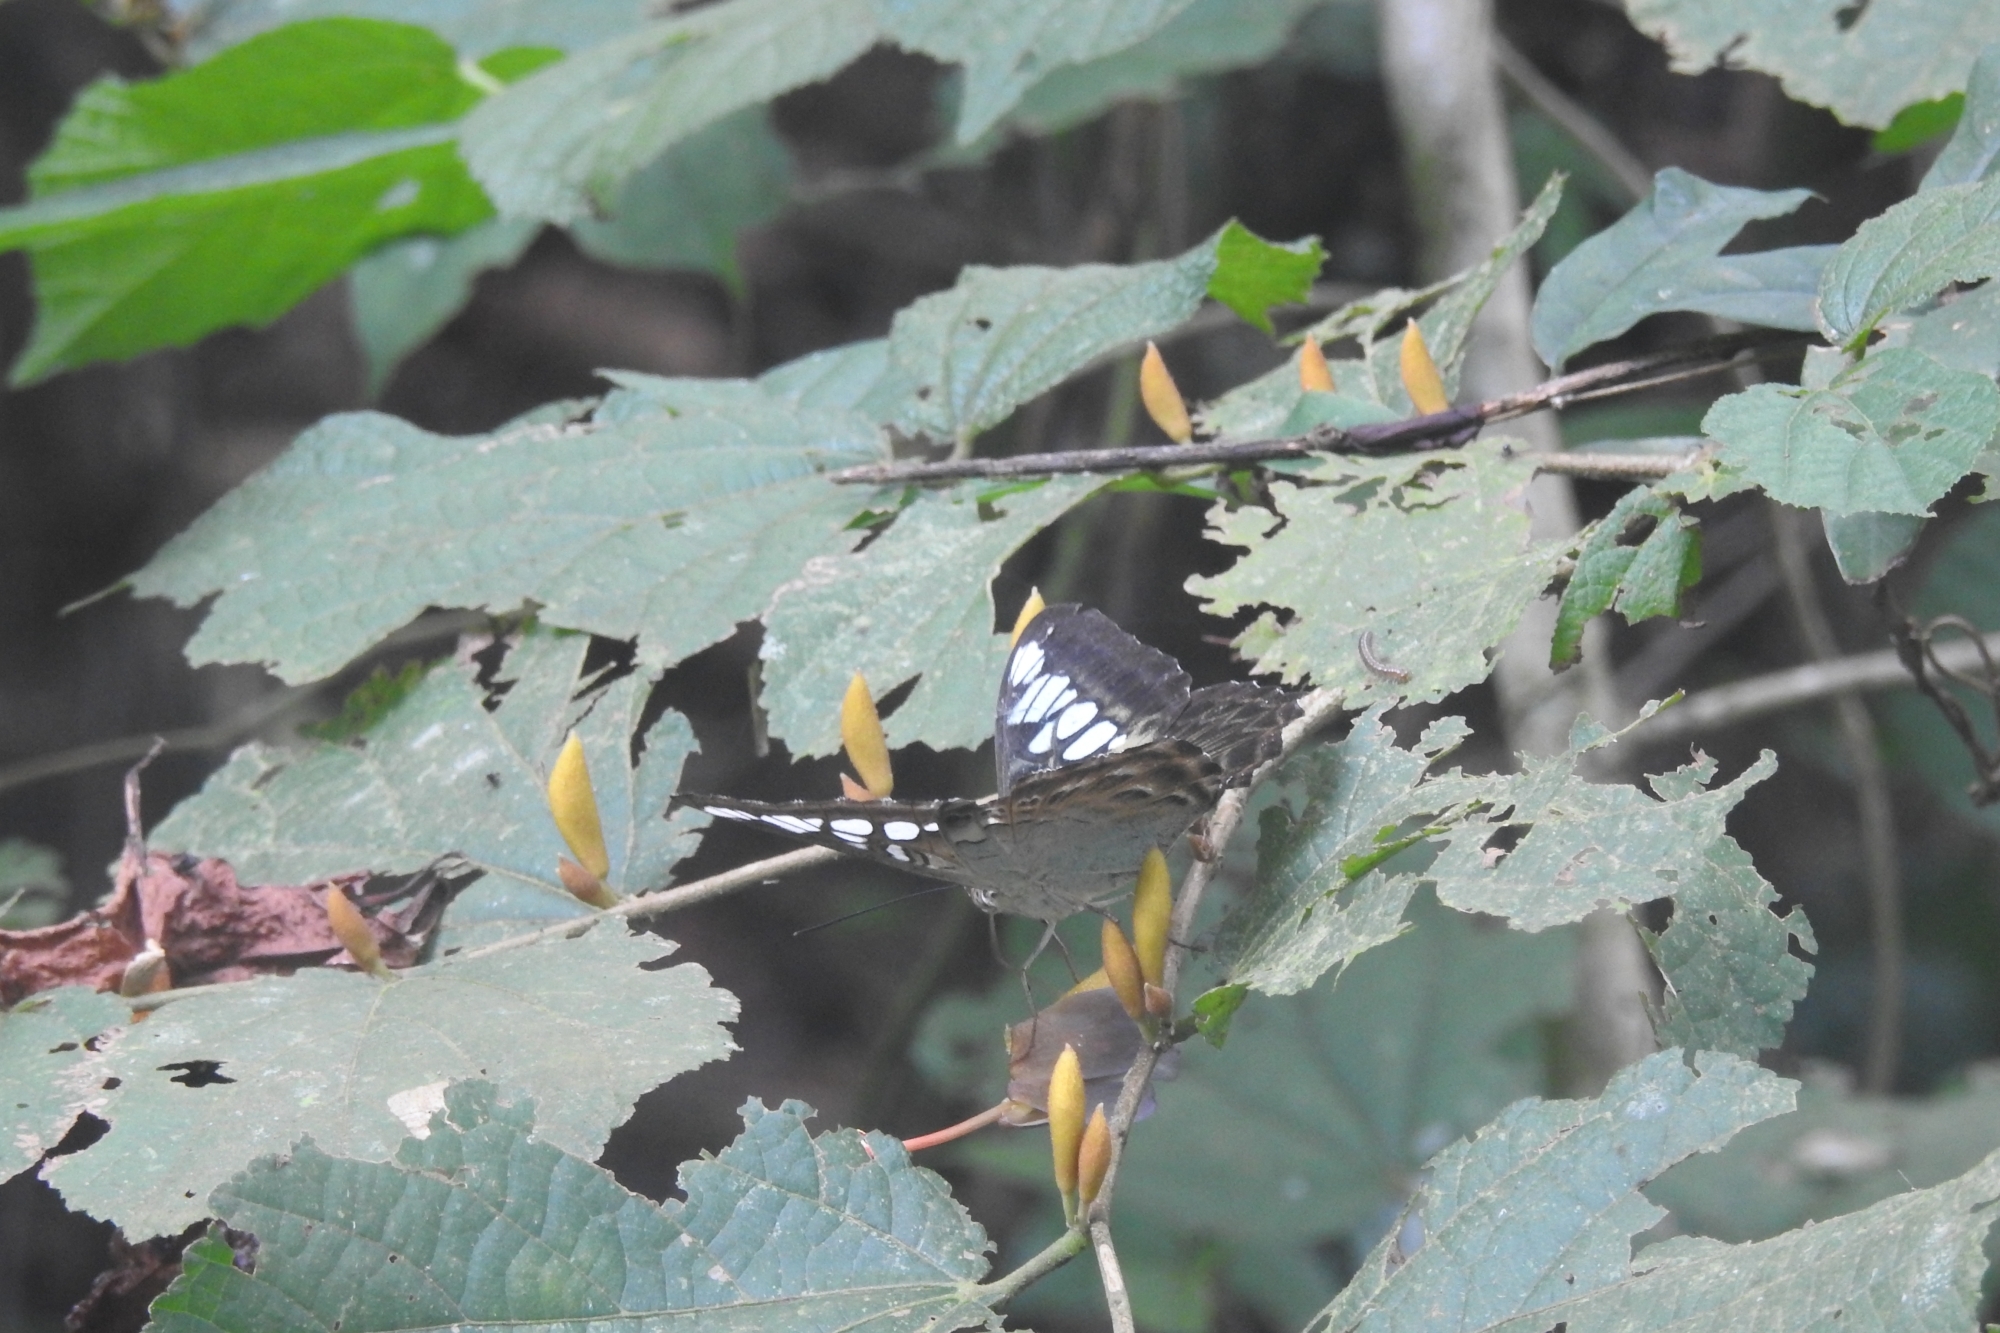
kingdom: Animalia
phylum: Arthropoda
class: Insecta
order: Lepidoptera
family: Nymphalidae
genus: Kallima
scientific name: Kallima sylvia
